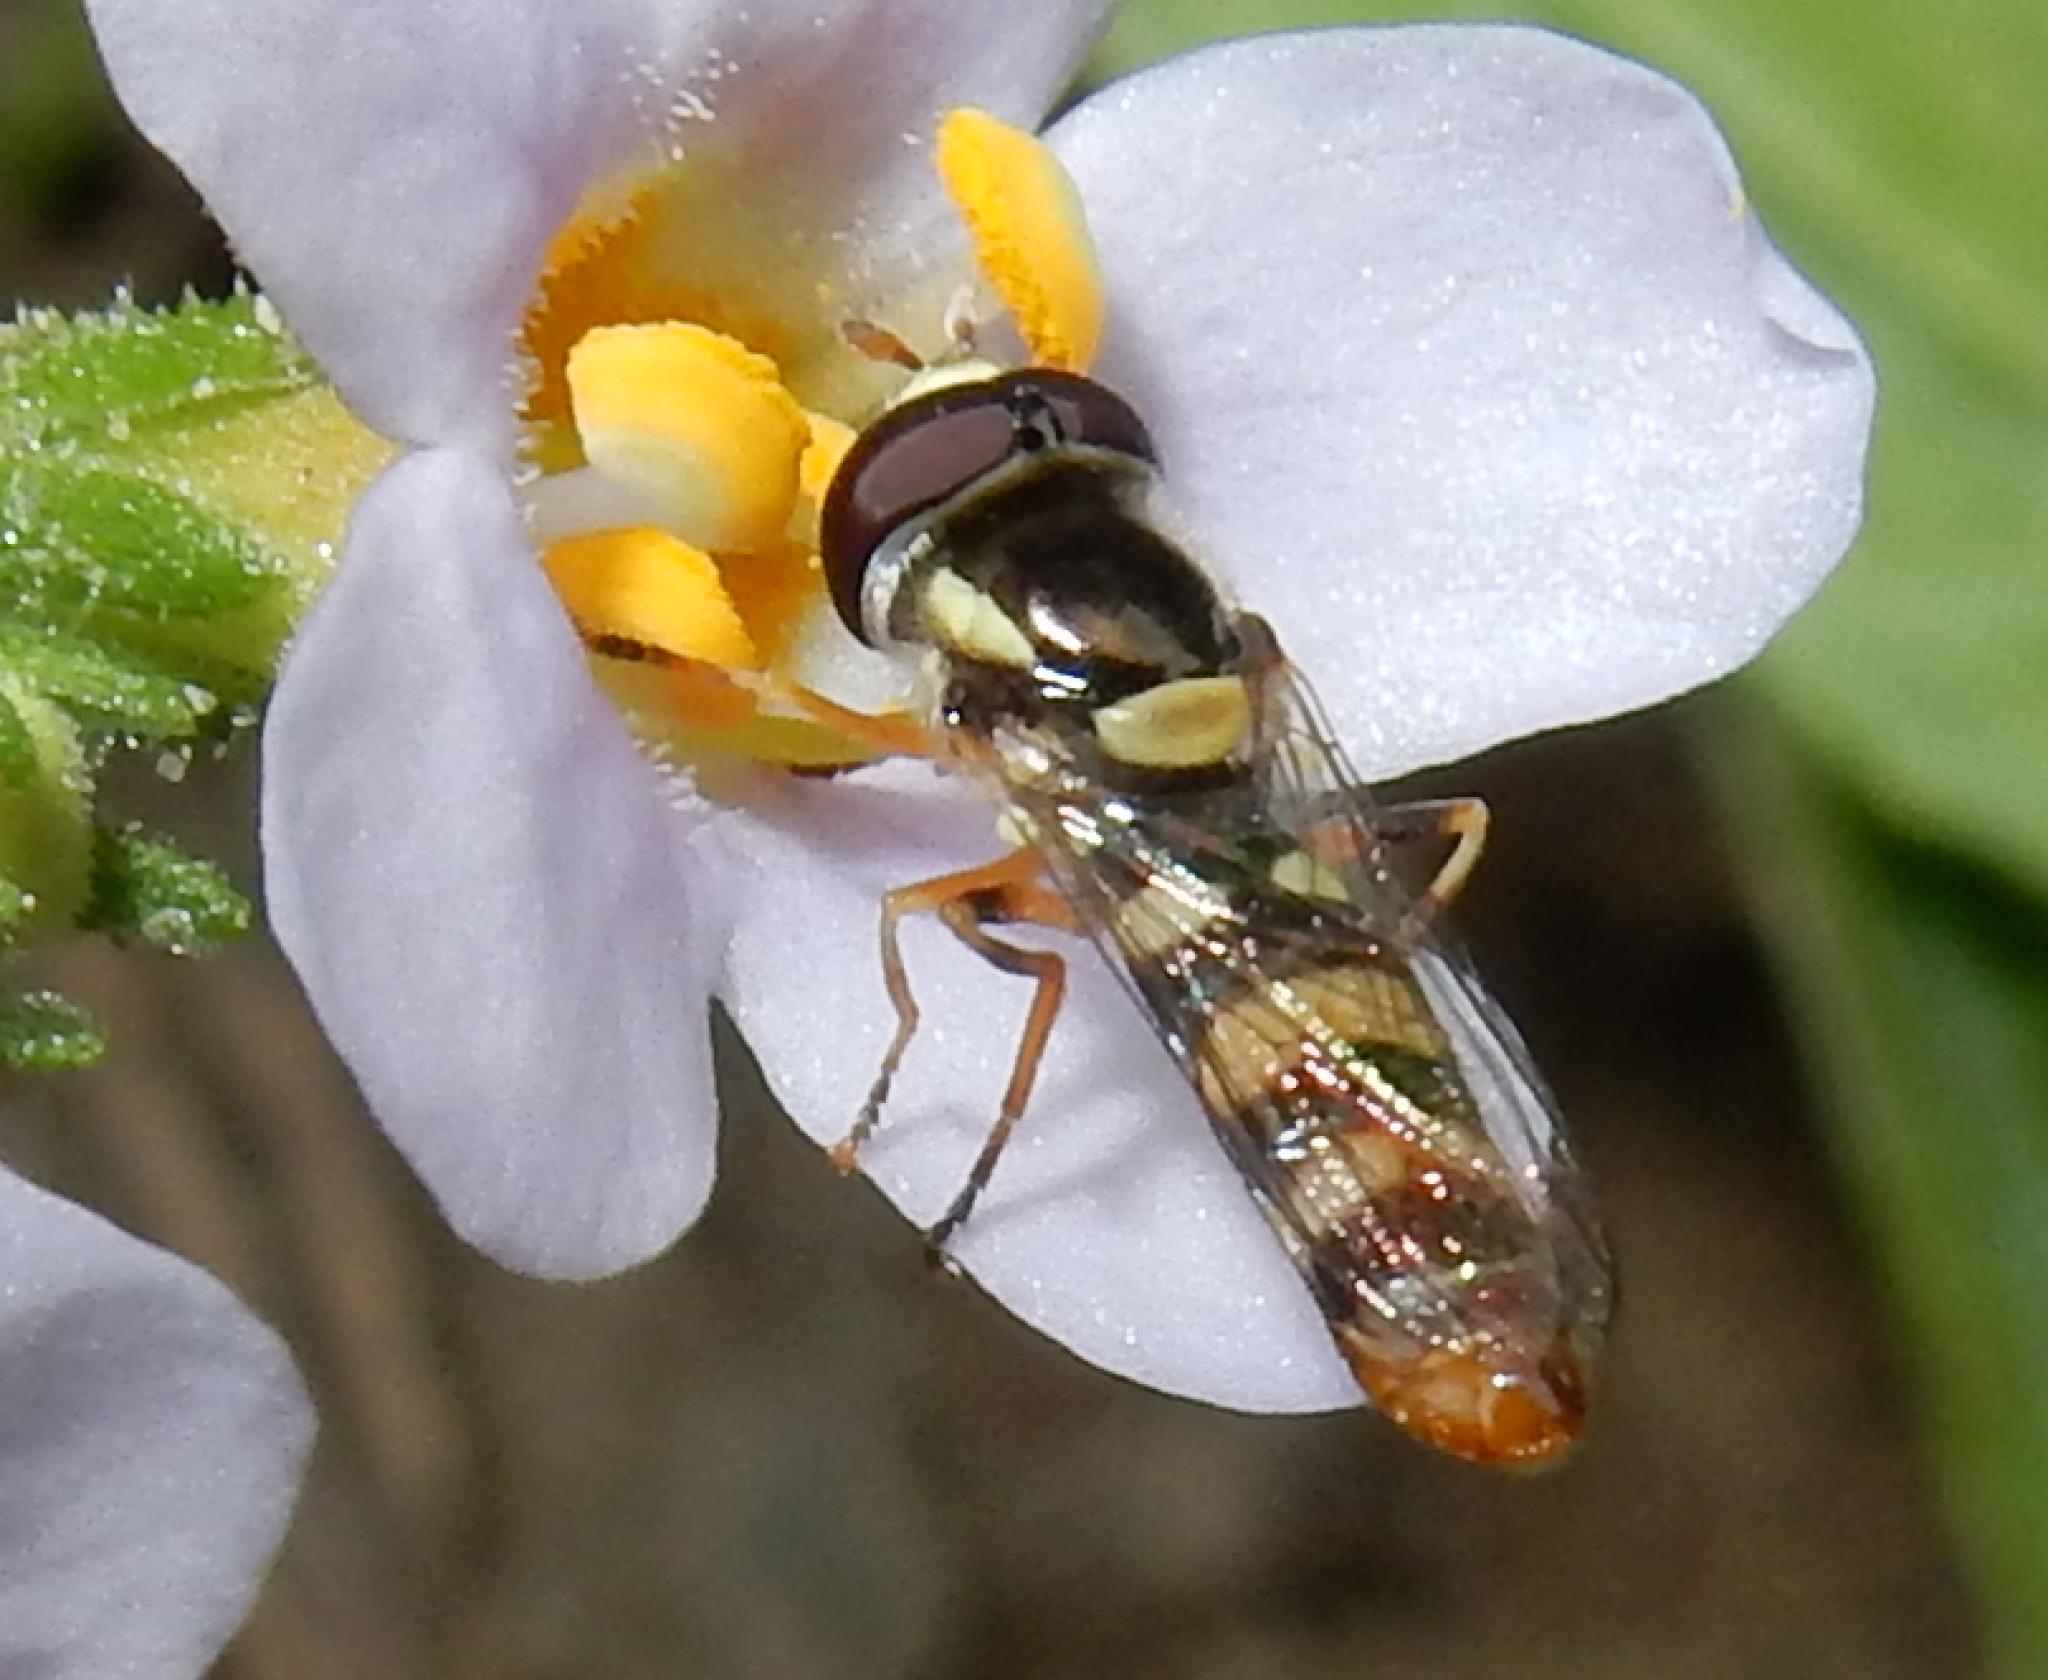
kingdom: Animalia
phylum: Arthropoda
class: Insecta
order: Diptera
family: Syrphidae
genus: Ischiodon
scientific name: Ischiodon aegyptius
